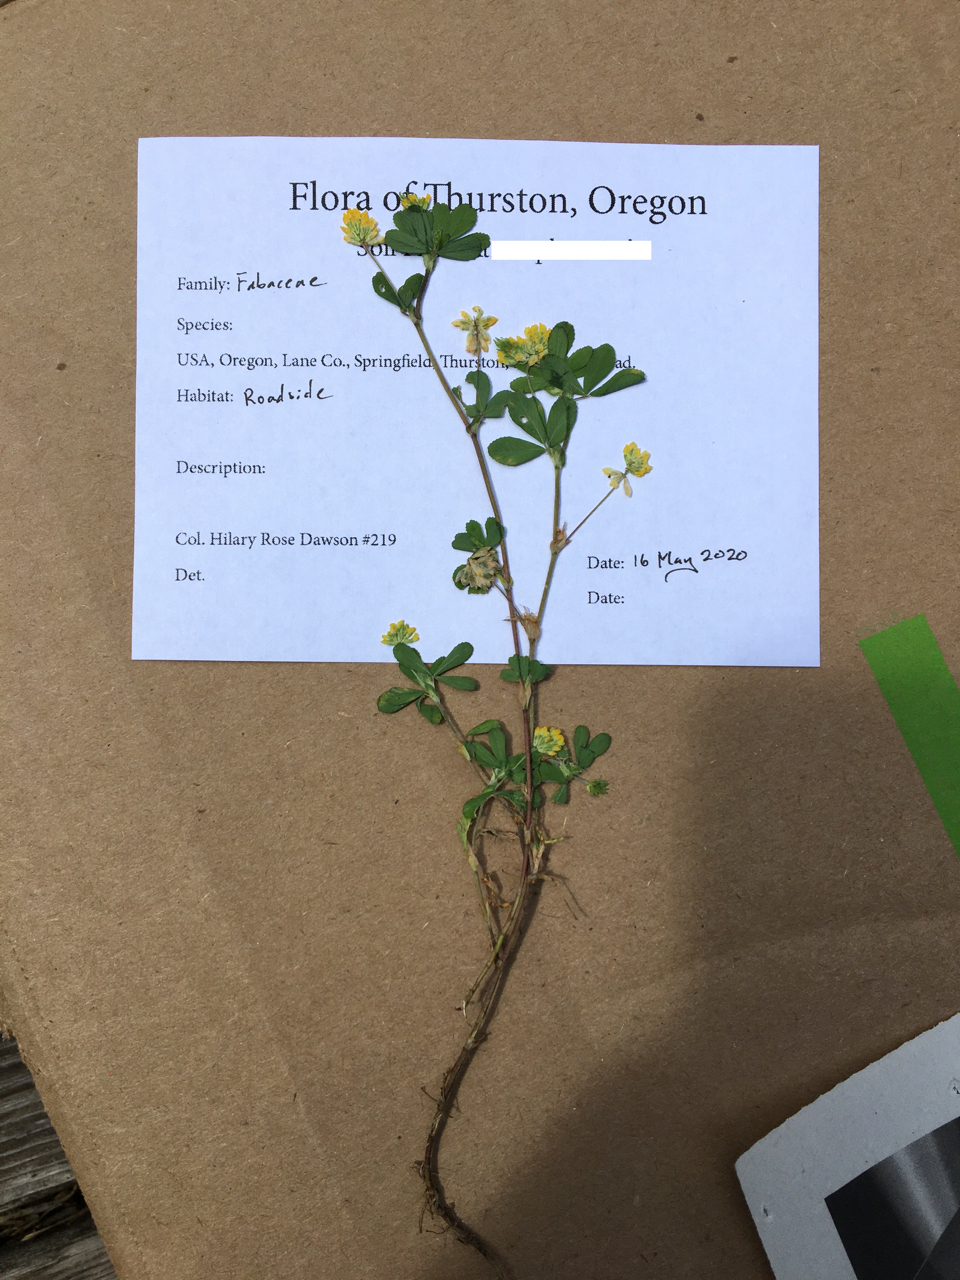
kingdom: Plantae
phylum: Tracheophyta
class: Magnoliopsida
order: Fabales
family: Fabaceae
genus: Trifolium
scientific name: Trifolium dubium
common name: Suckling clover
